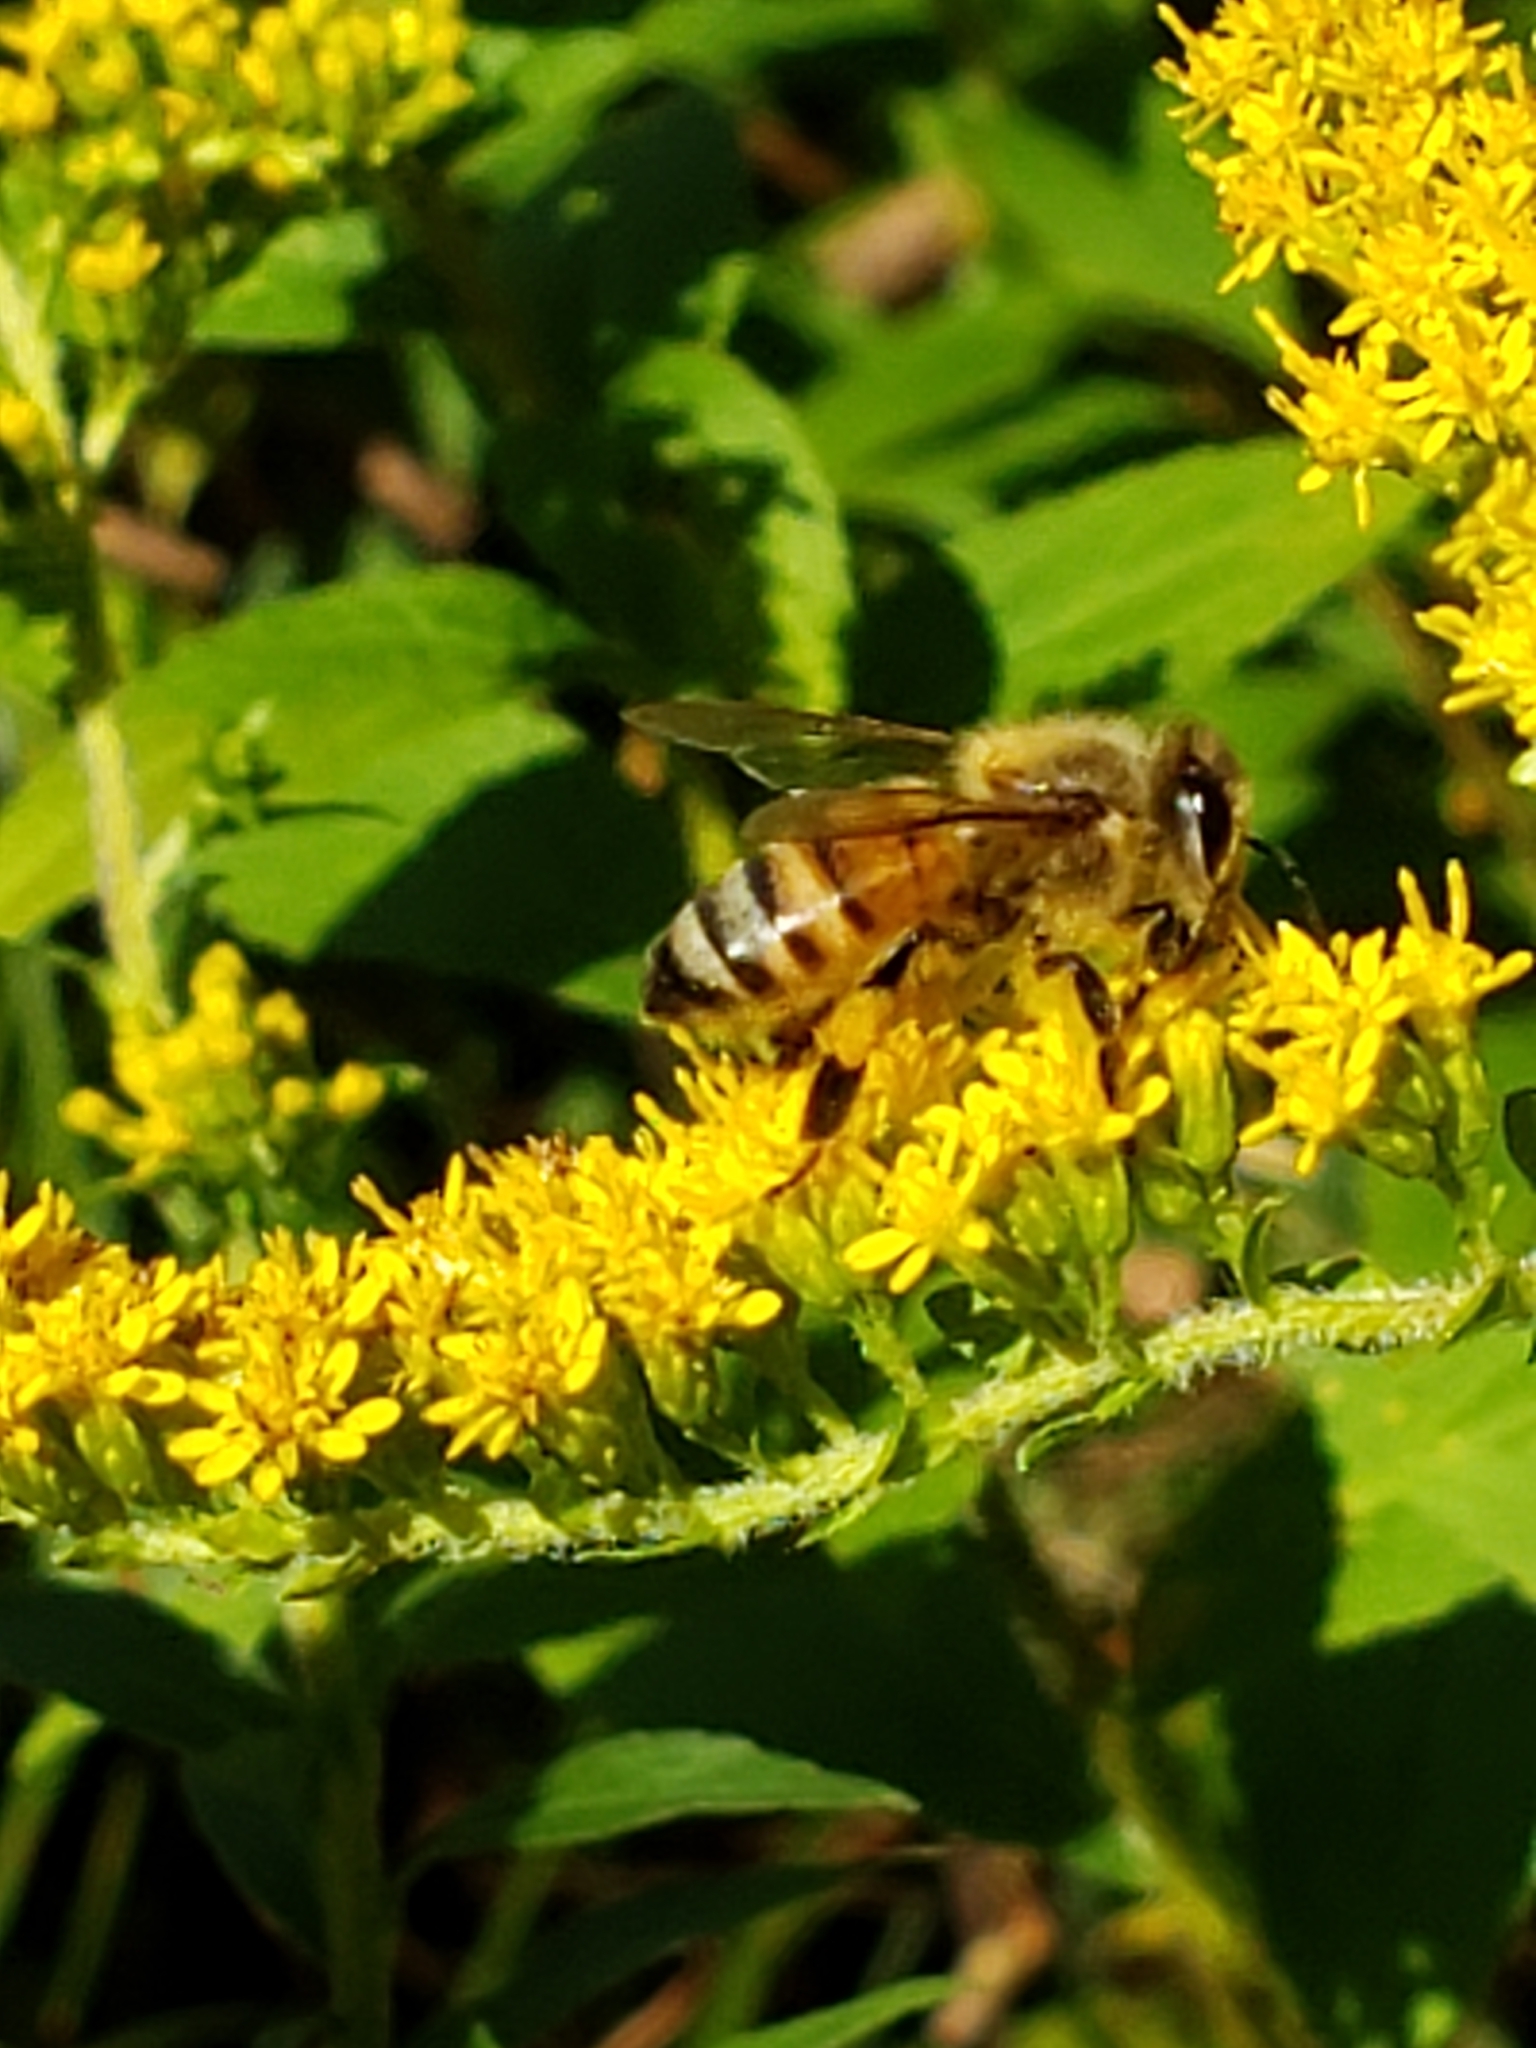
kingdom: Animalia
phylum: Arthropoda
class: Insecta
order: Hymenoptera
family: Apidae
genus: Apis
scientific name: Apis mellifera
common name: Honey bee
